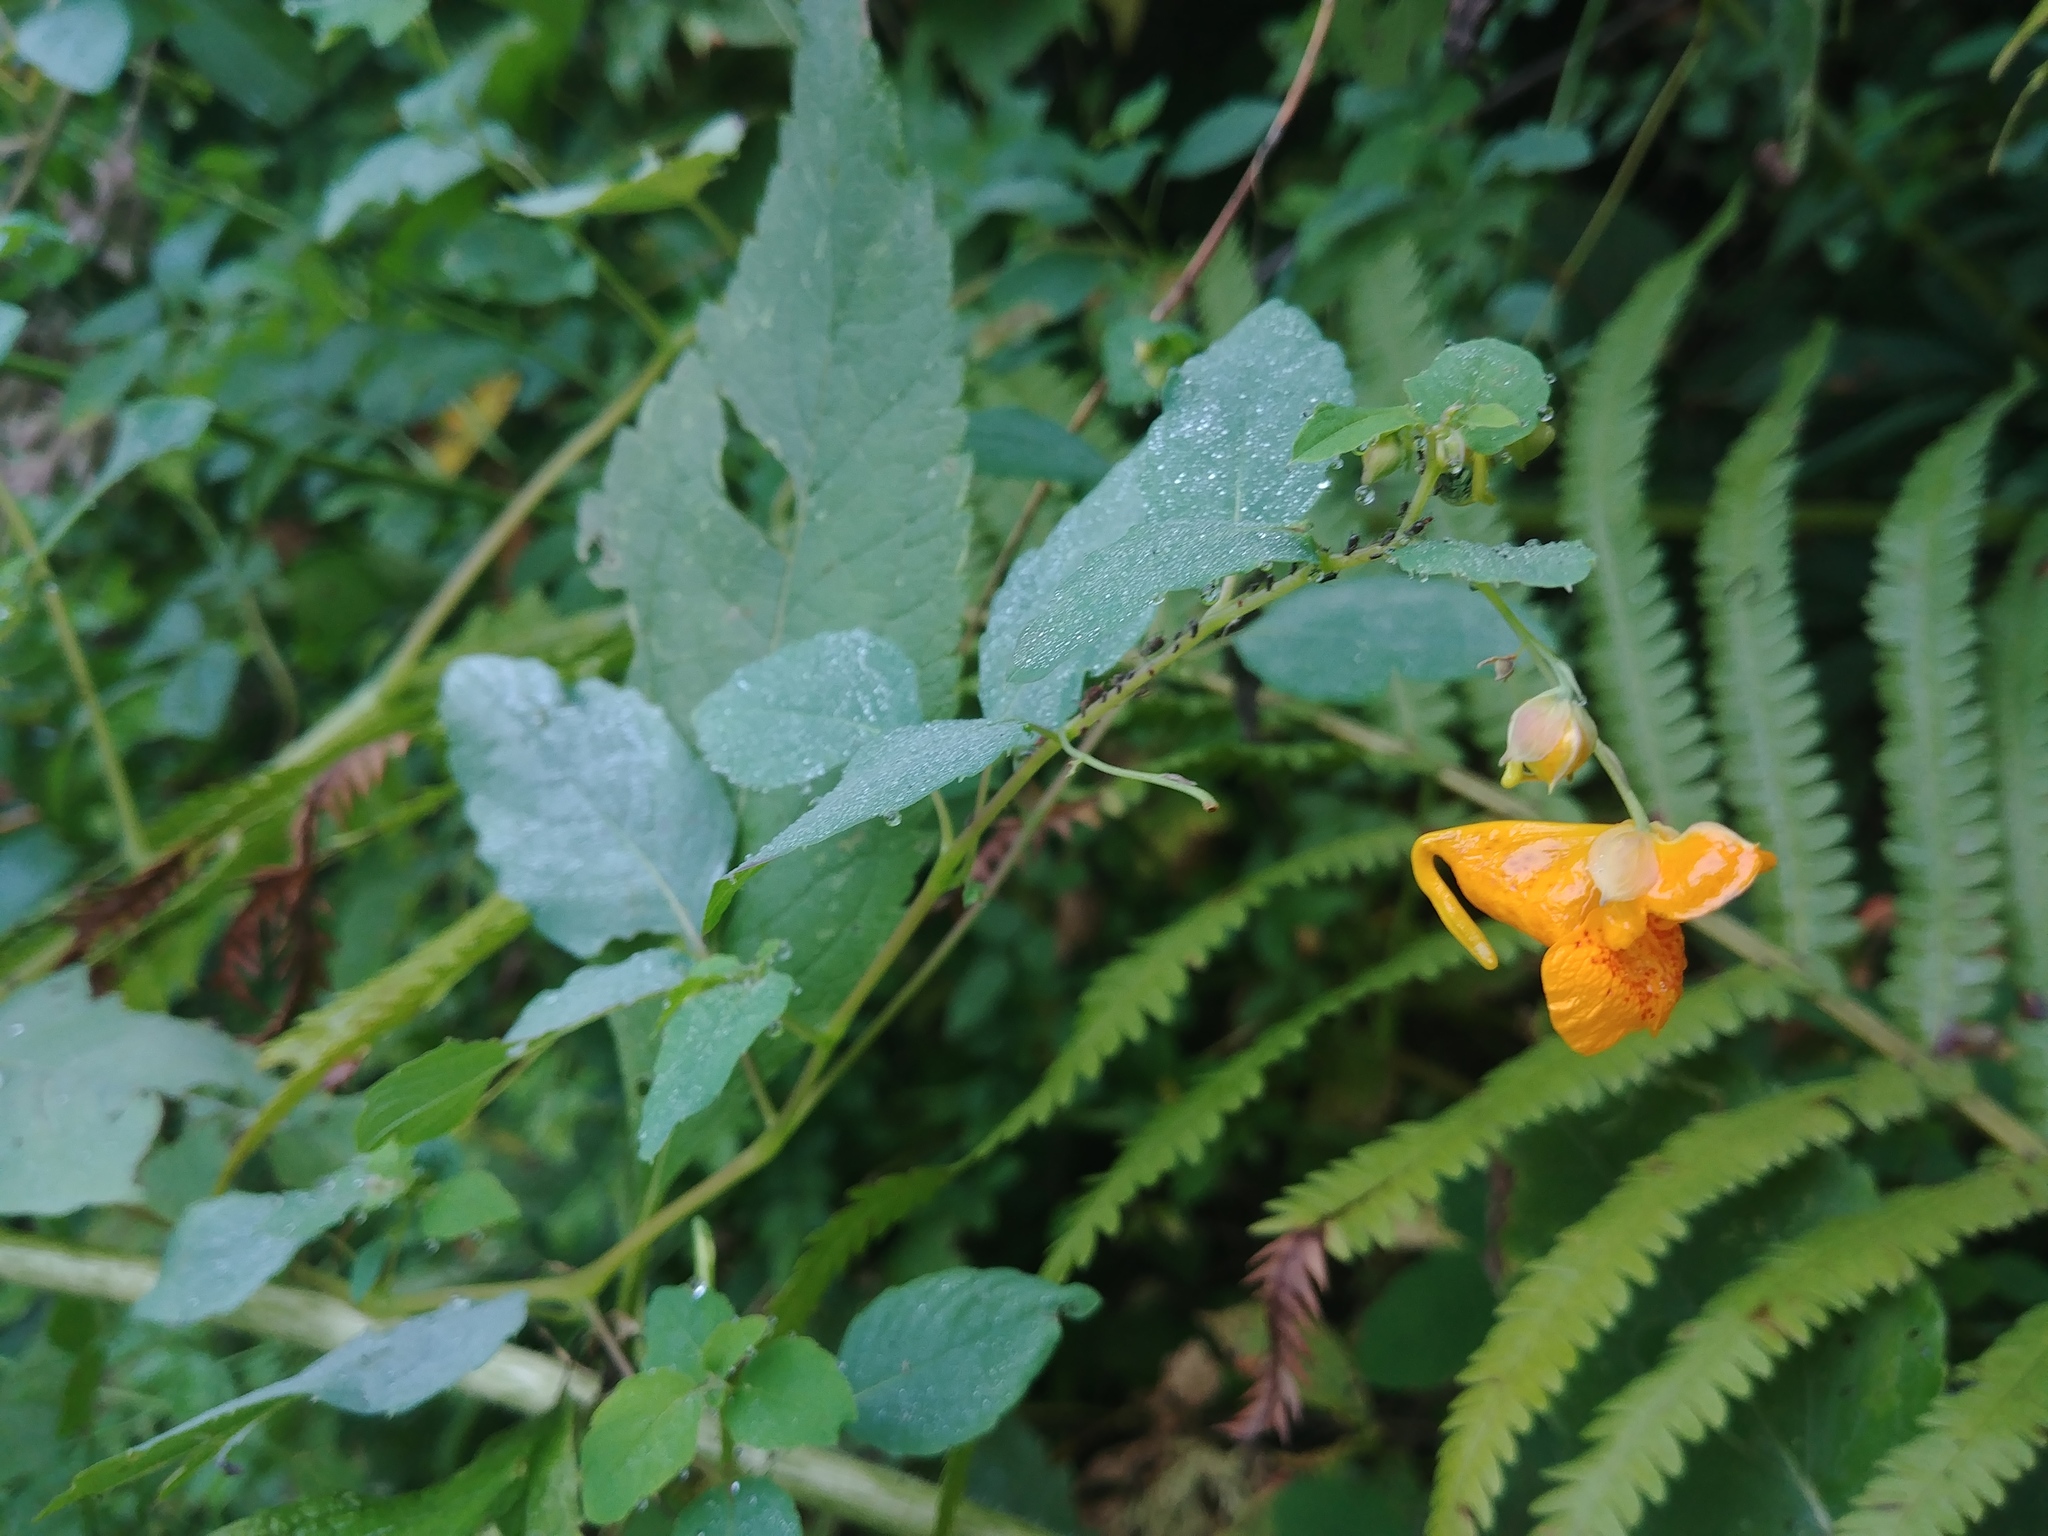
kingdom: Plantae
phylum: Tracheophyta
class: Magnoliopsida
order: Ericales
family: Balsaminaceae
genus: Impatiens
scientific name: Impatiens capensis
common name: Orange balsam
